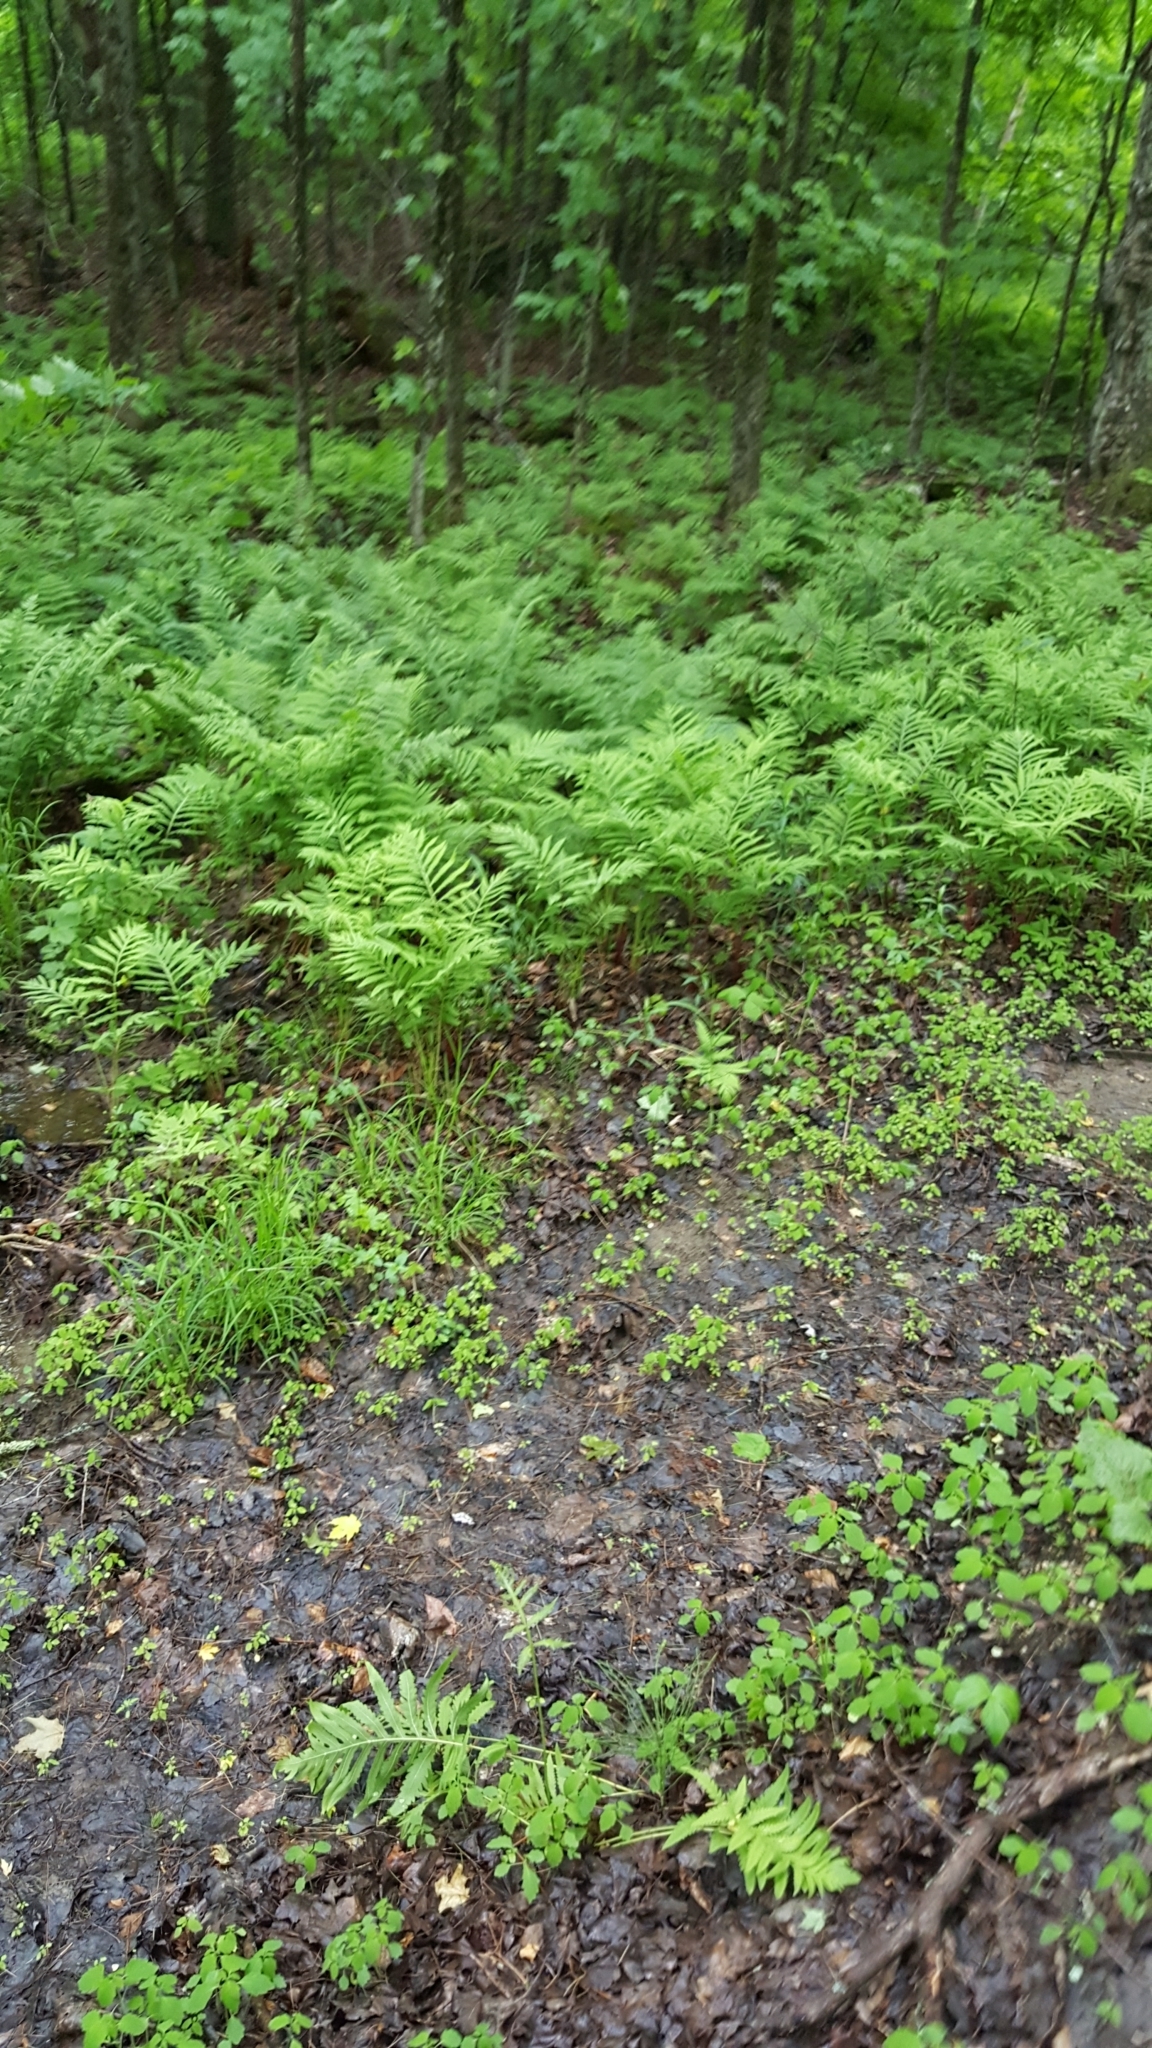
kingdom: Plantae
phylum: Tracheophyta
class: Polypodiopsida
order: Polypodiales
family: Onocleaceae
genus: Onoclea
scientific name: Onoclea sensibilis
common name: Sensitive fern
